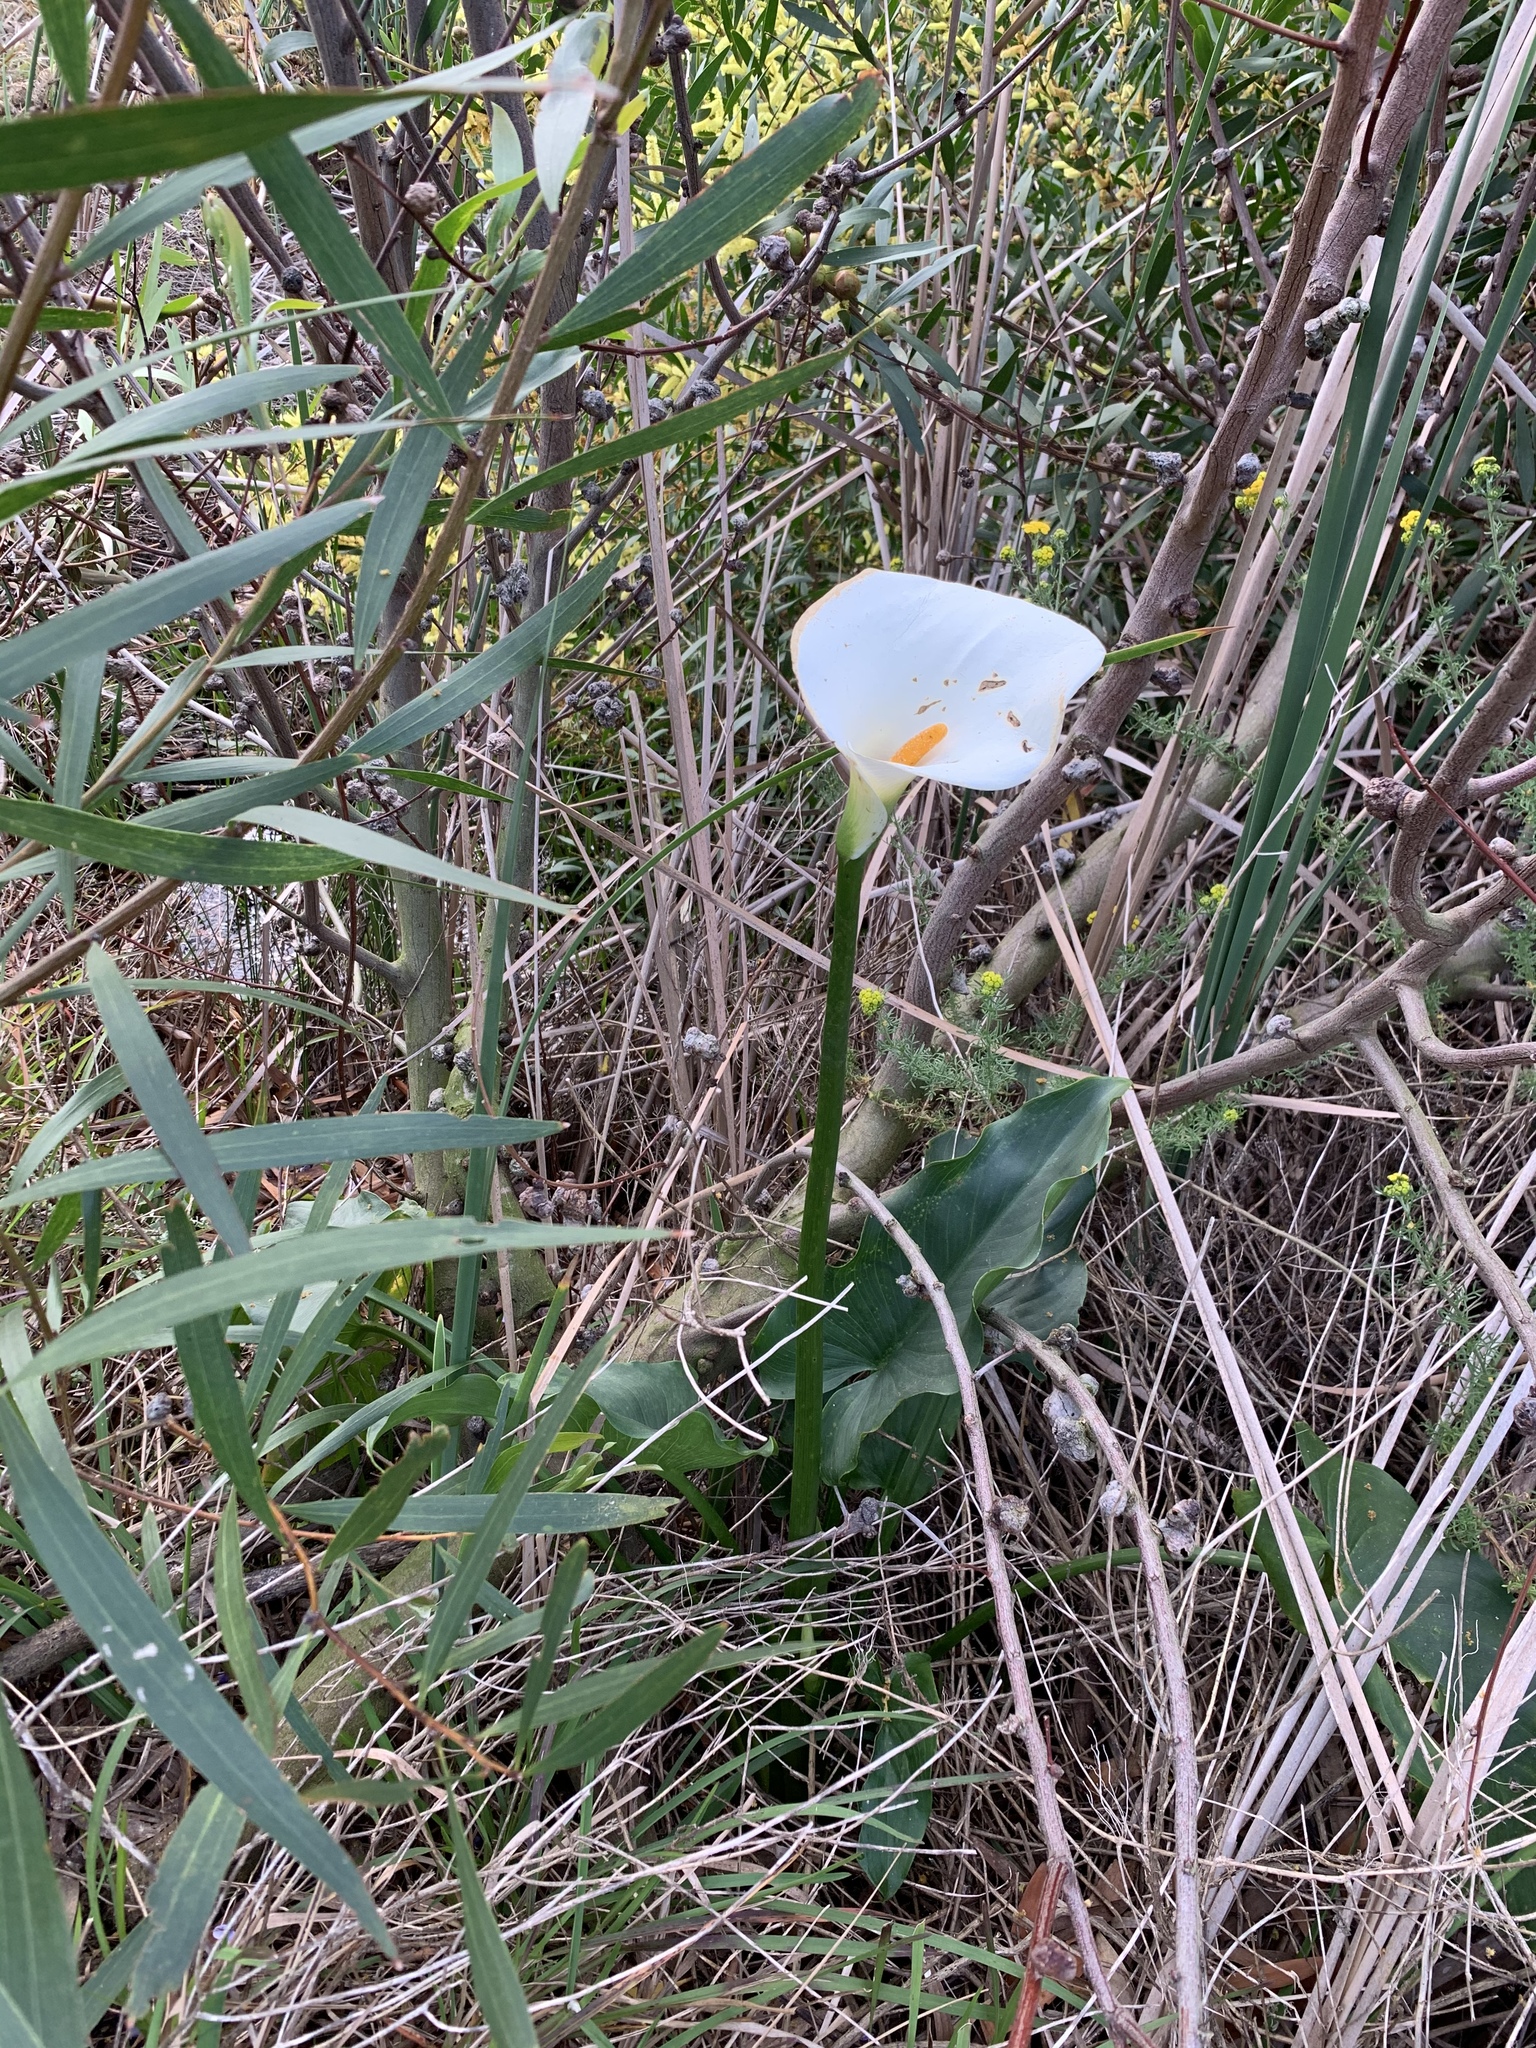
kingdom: Plantae
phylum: Tracheophyta
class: Liliopsida
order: Alismatales
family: Araceae
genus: Zantedeschia
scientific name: Zantedeschia aethiopica
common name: Altar-lily
